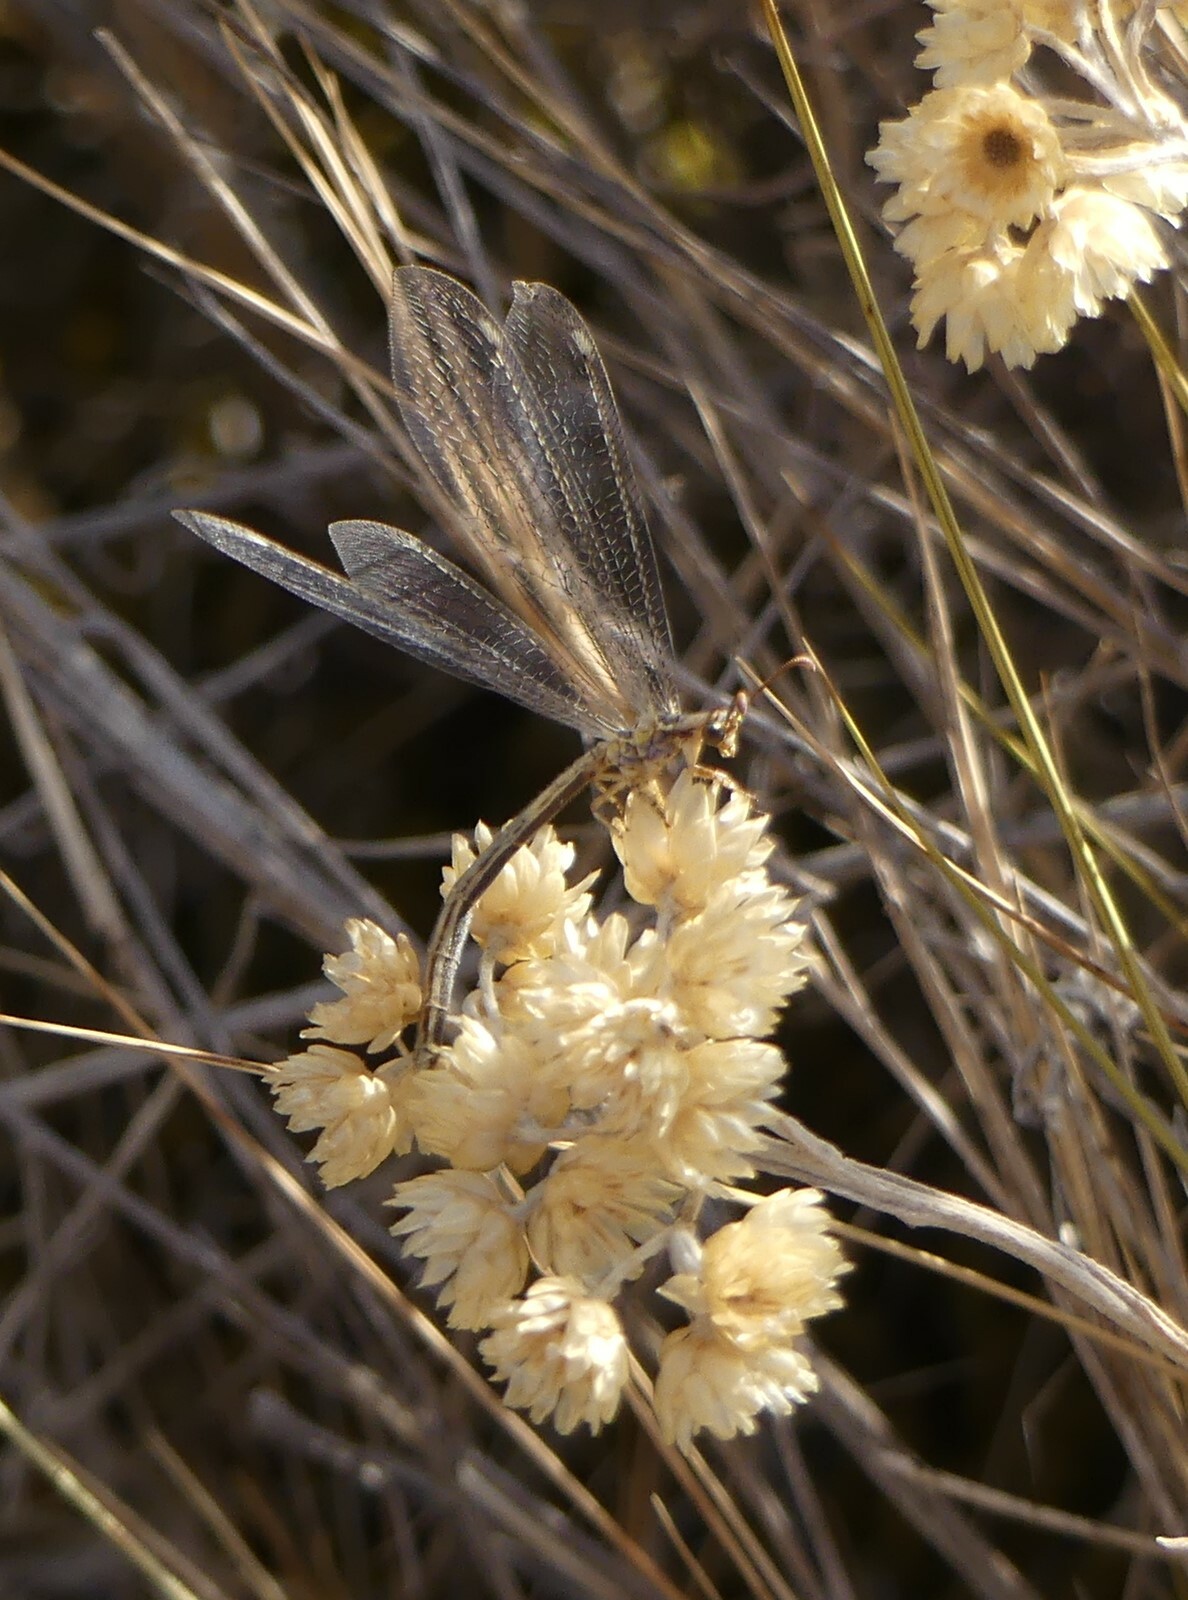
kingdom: Animalia
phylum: Arthropoda
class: Insecta
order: Neuroptera
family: Myrmeleontidae
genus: Macronemurus
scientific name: Macronemurus appendiculatus
